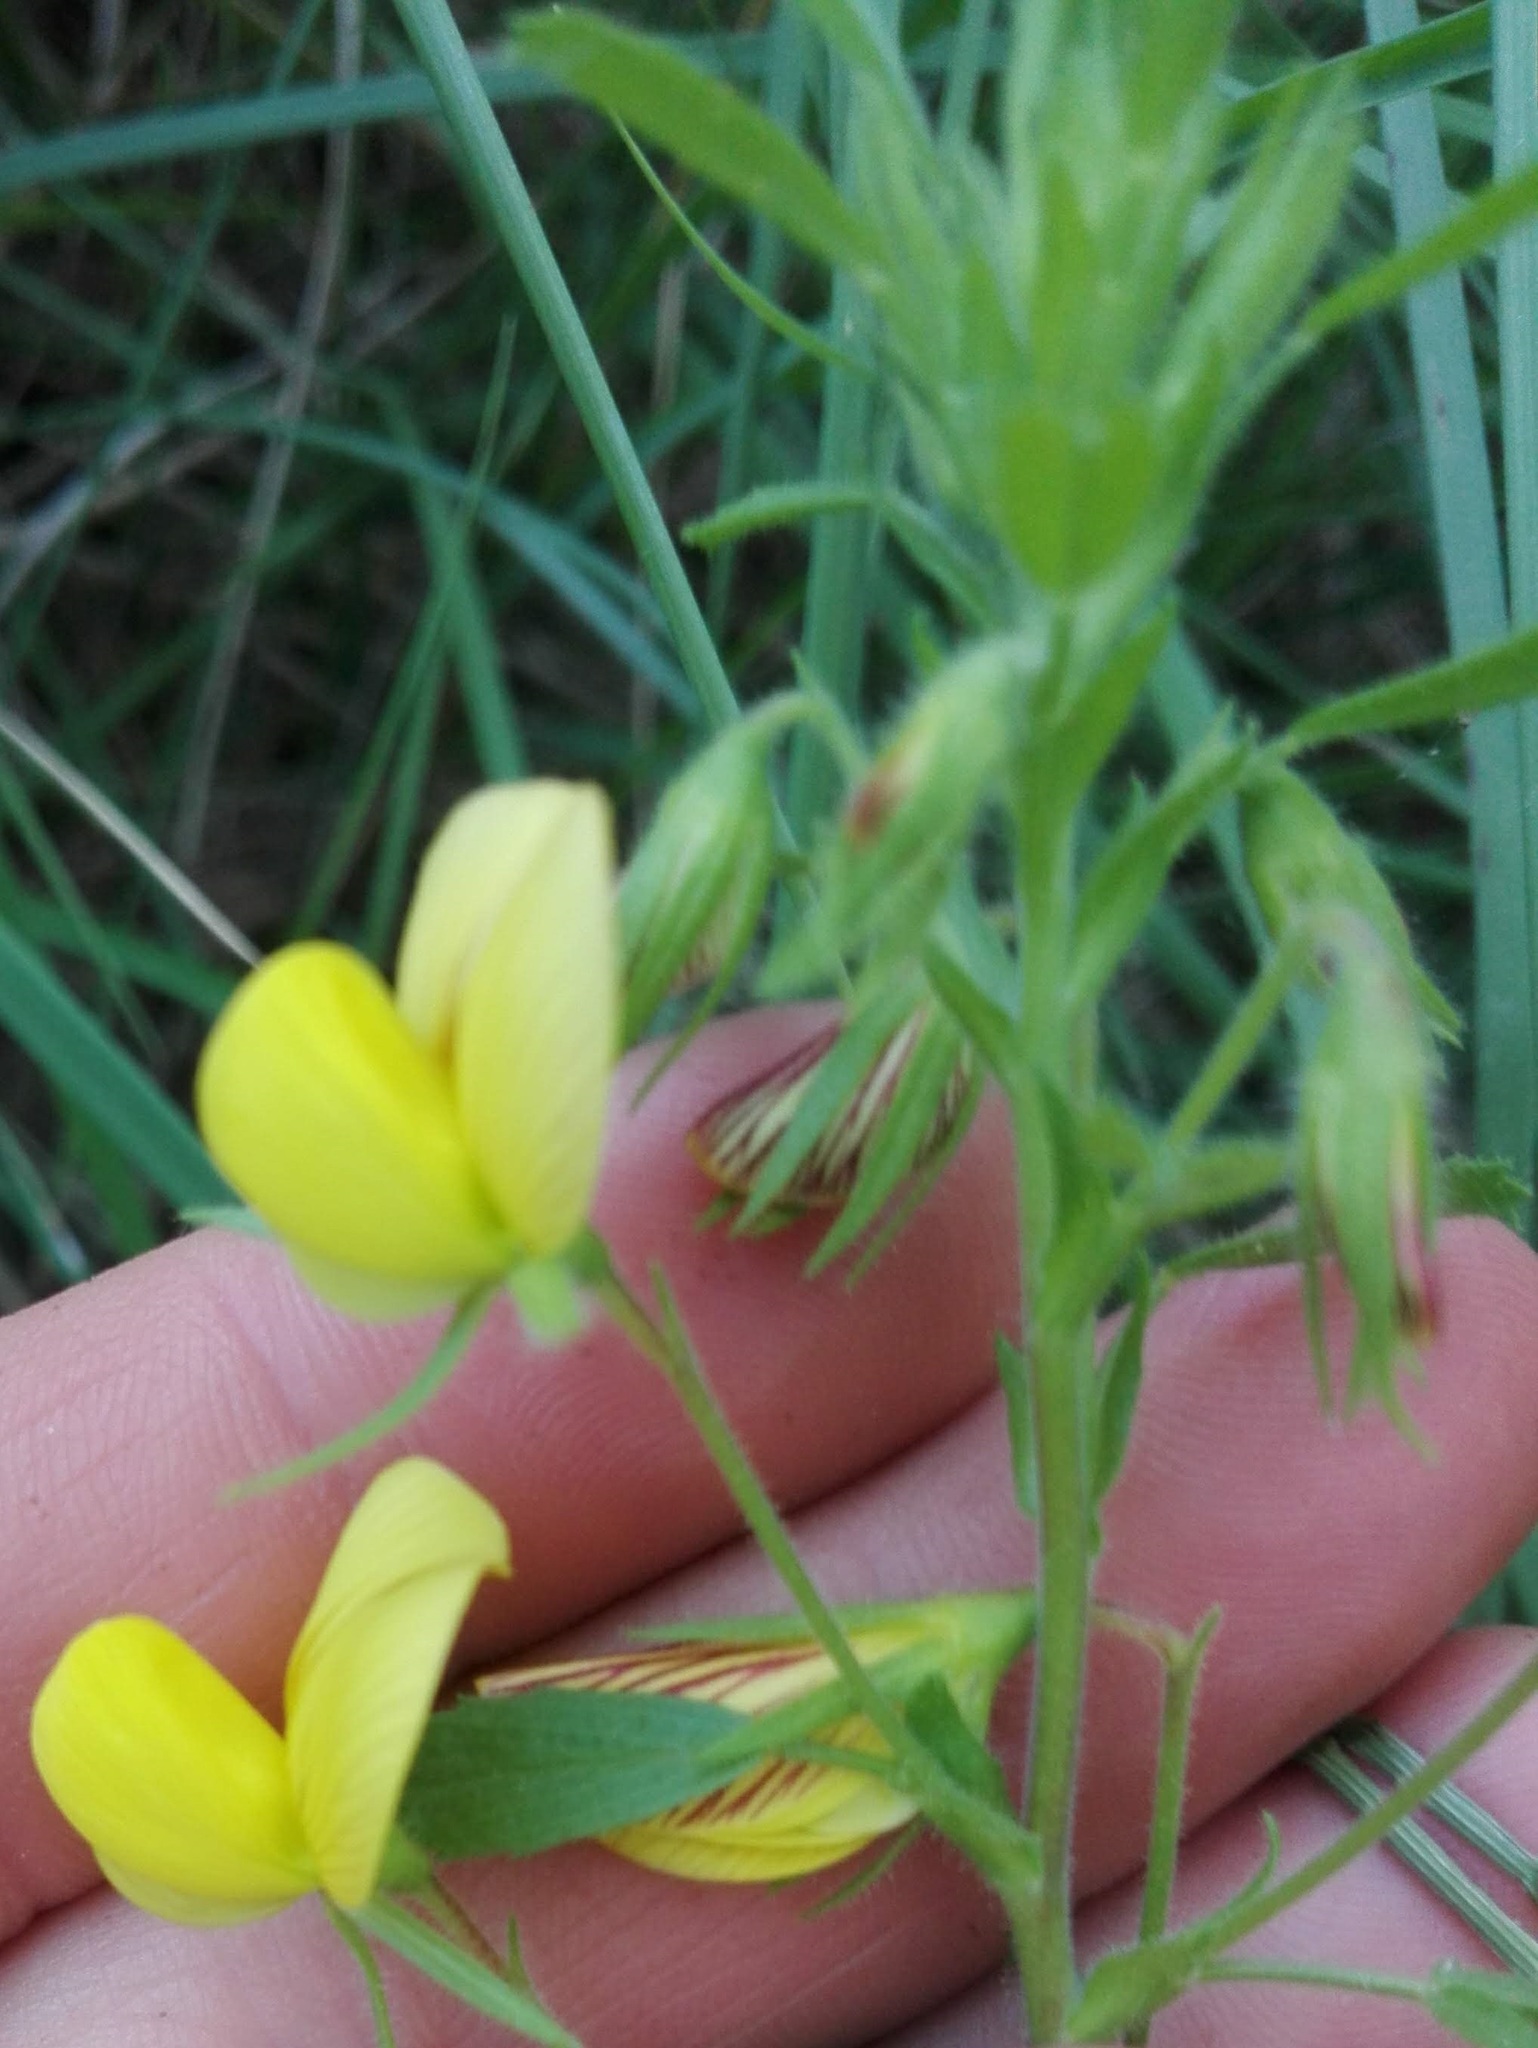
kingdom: Plantae
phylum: Tracheophyta
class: Magnoliopsida
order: Fabales
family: Fabaceae
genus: Ononis
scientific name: Ononis natrix
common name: Yellow restharrow
